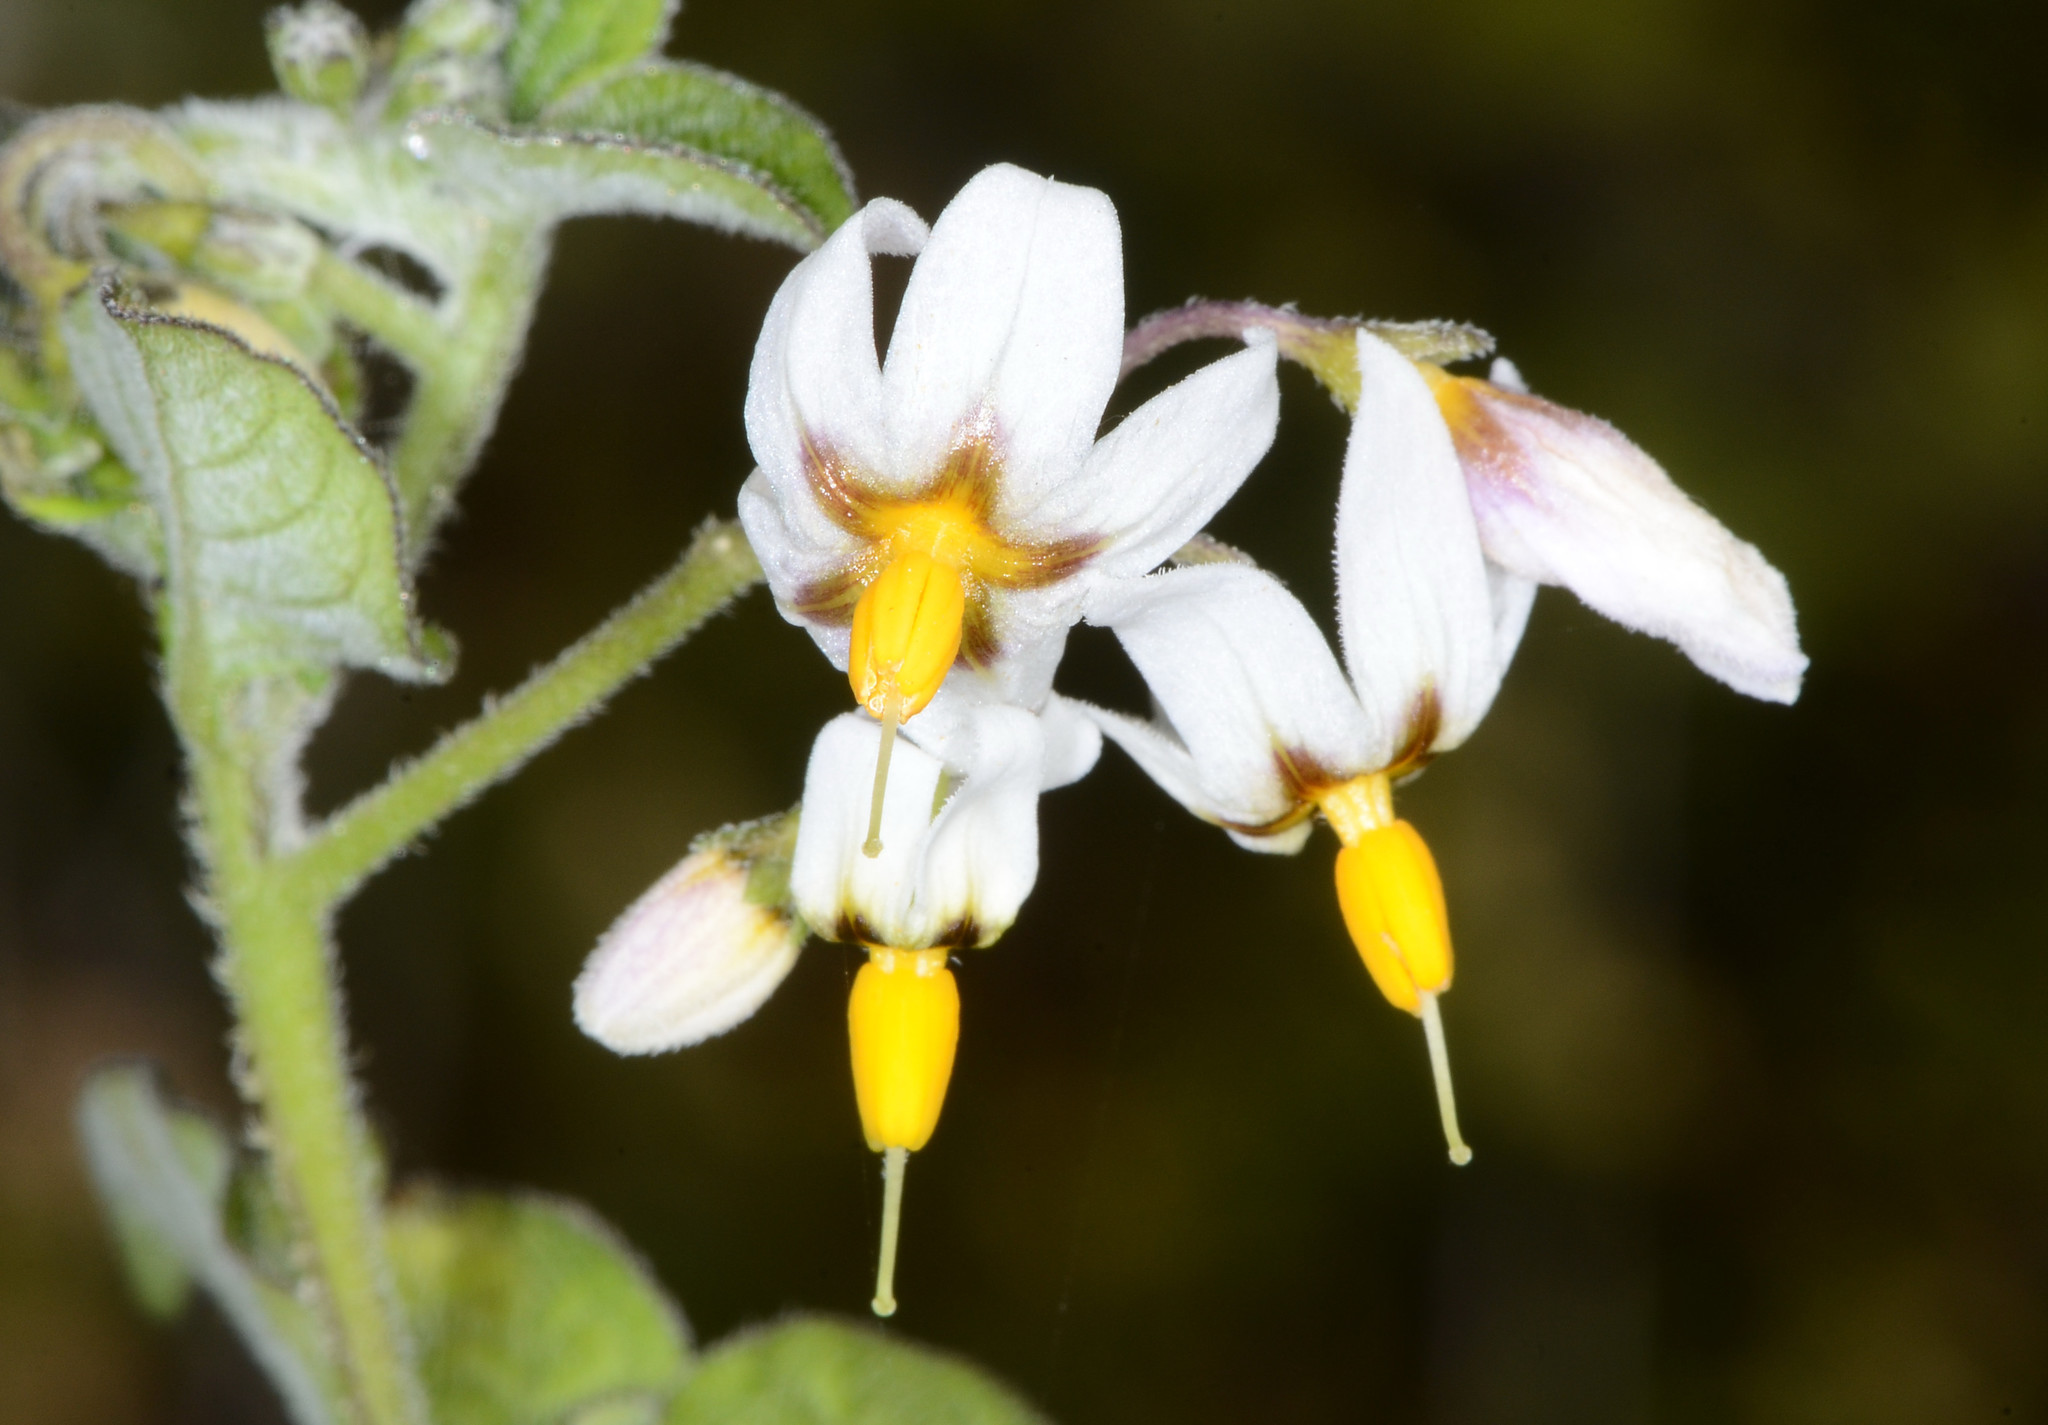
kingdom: Plantae
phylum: Tracheophyta
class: Magnoliopsida
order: Solanales
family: Solanaceae
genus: Solanum
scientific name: Solanum douglasii
